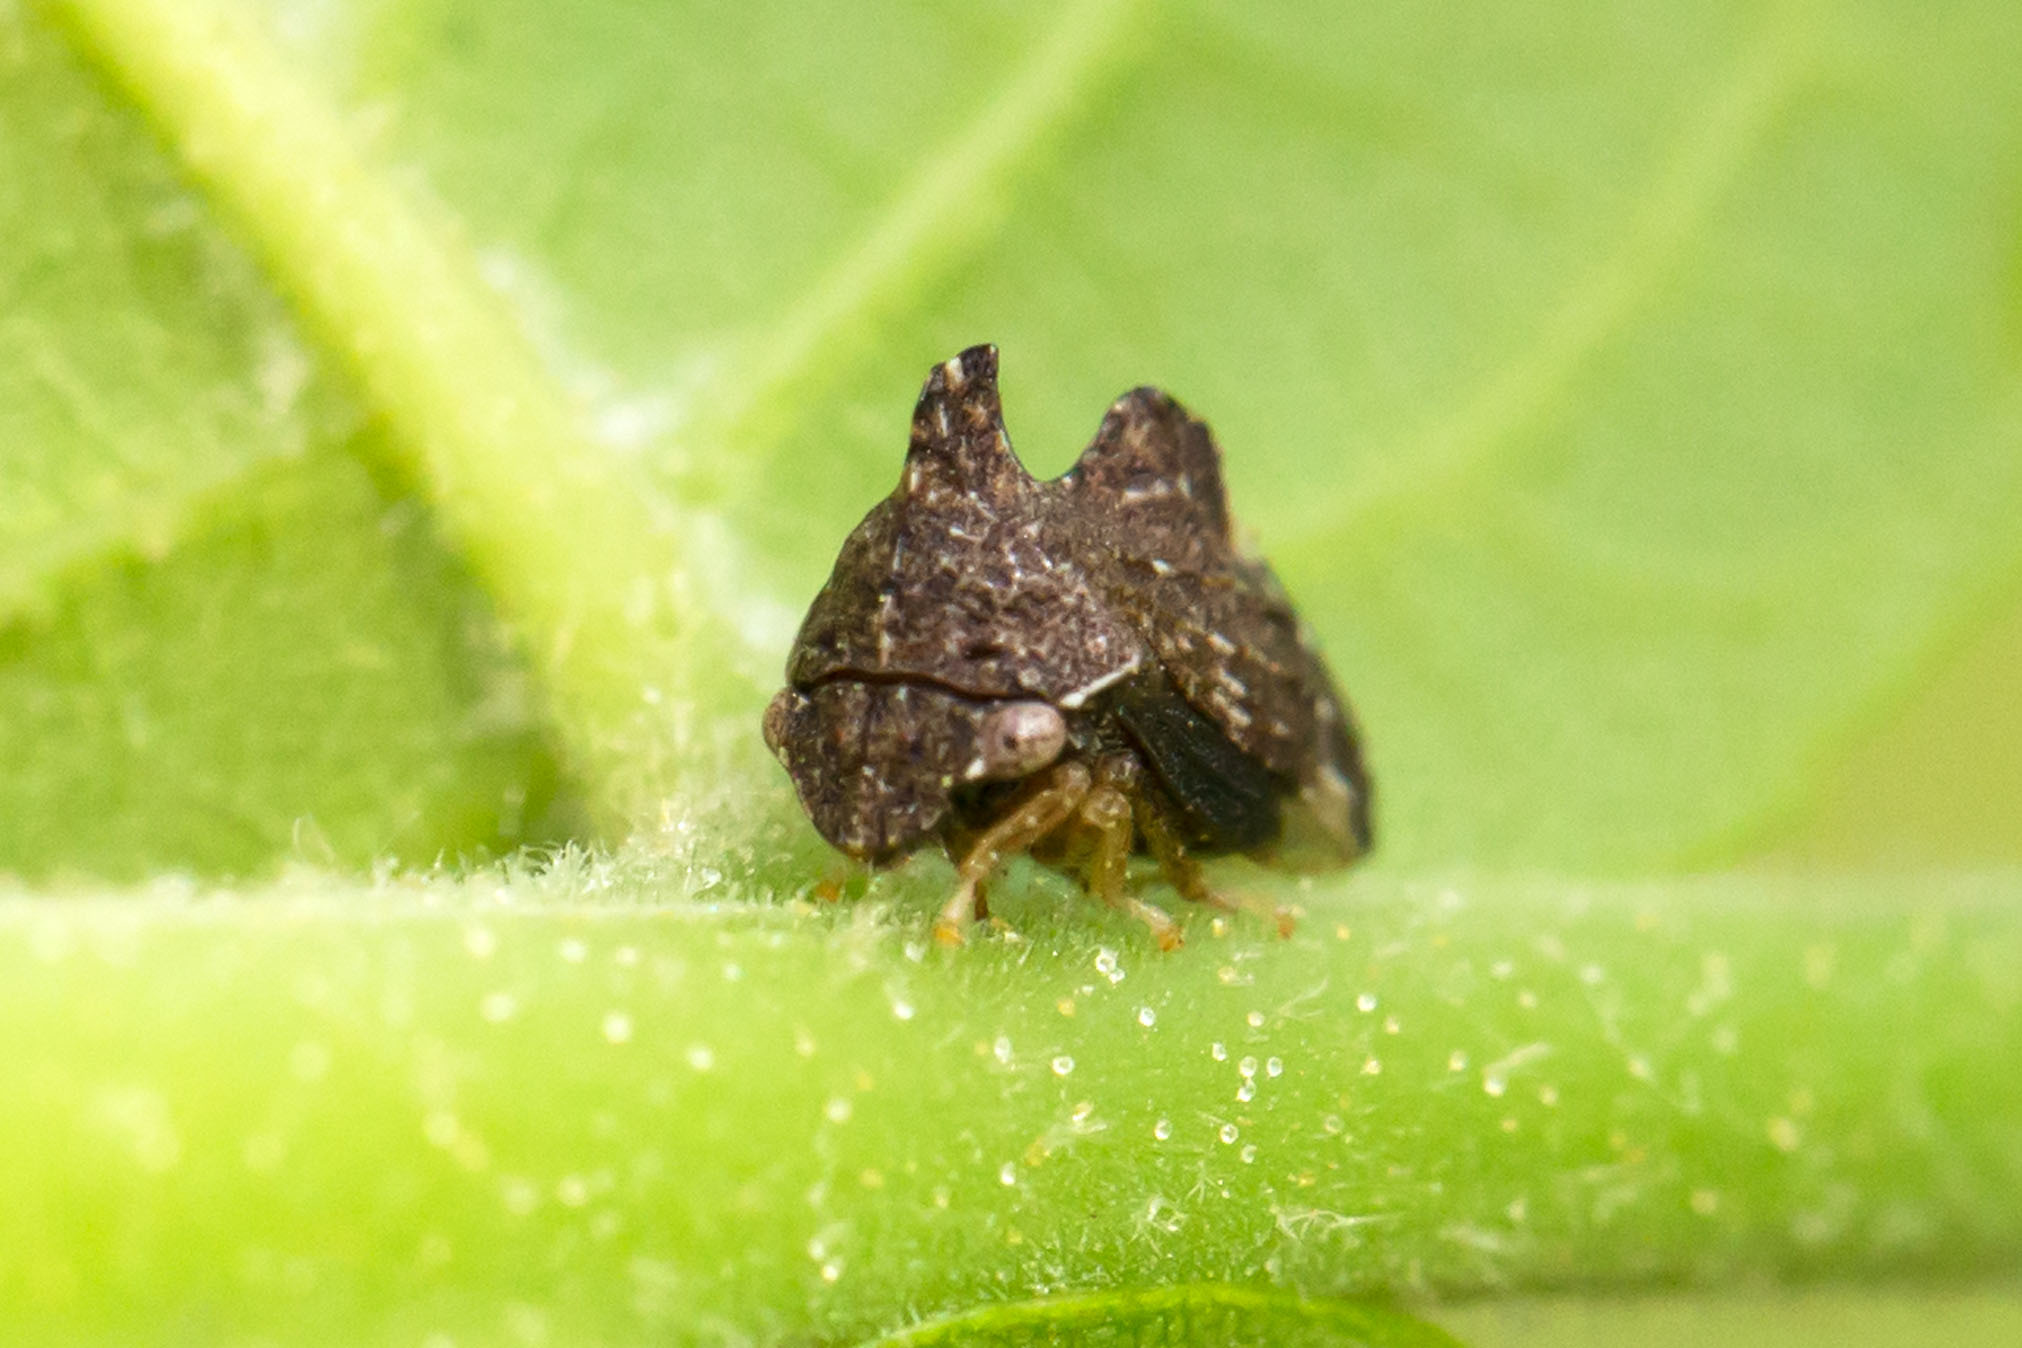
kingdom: Animalia
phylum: Arthropoda
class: Insecta
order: Hemiptera
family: Membracidae
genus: Entylia
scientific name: Entylia carinata
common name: Keeled treehopper
